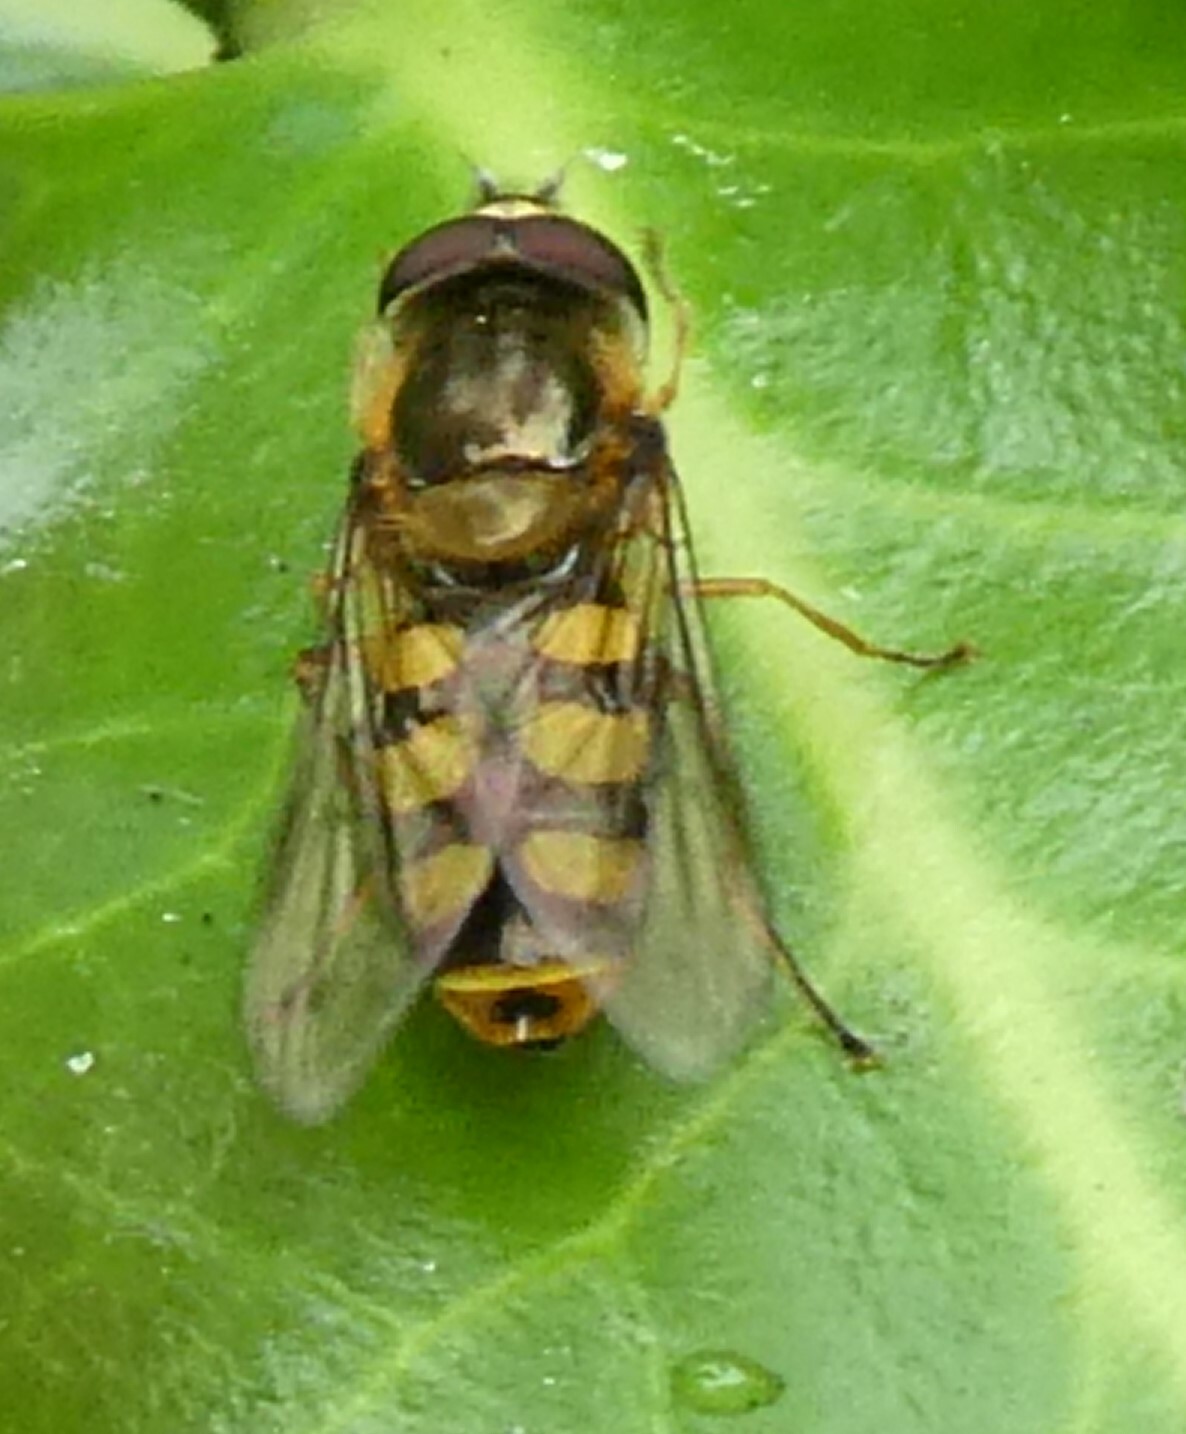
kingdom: Animalia
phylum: Arthropoda
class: Insecta
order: Diptera
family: Syrphidae
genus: Eupeodes
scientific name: Eupeodes
